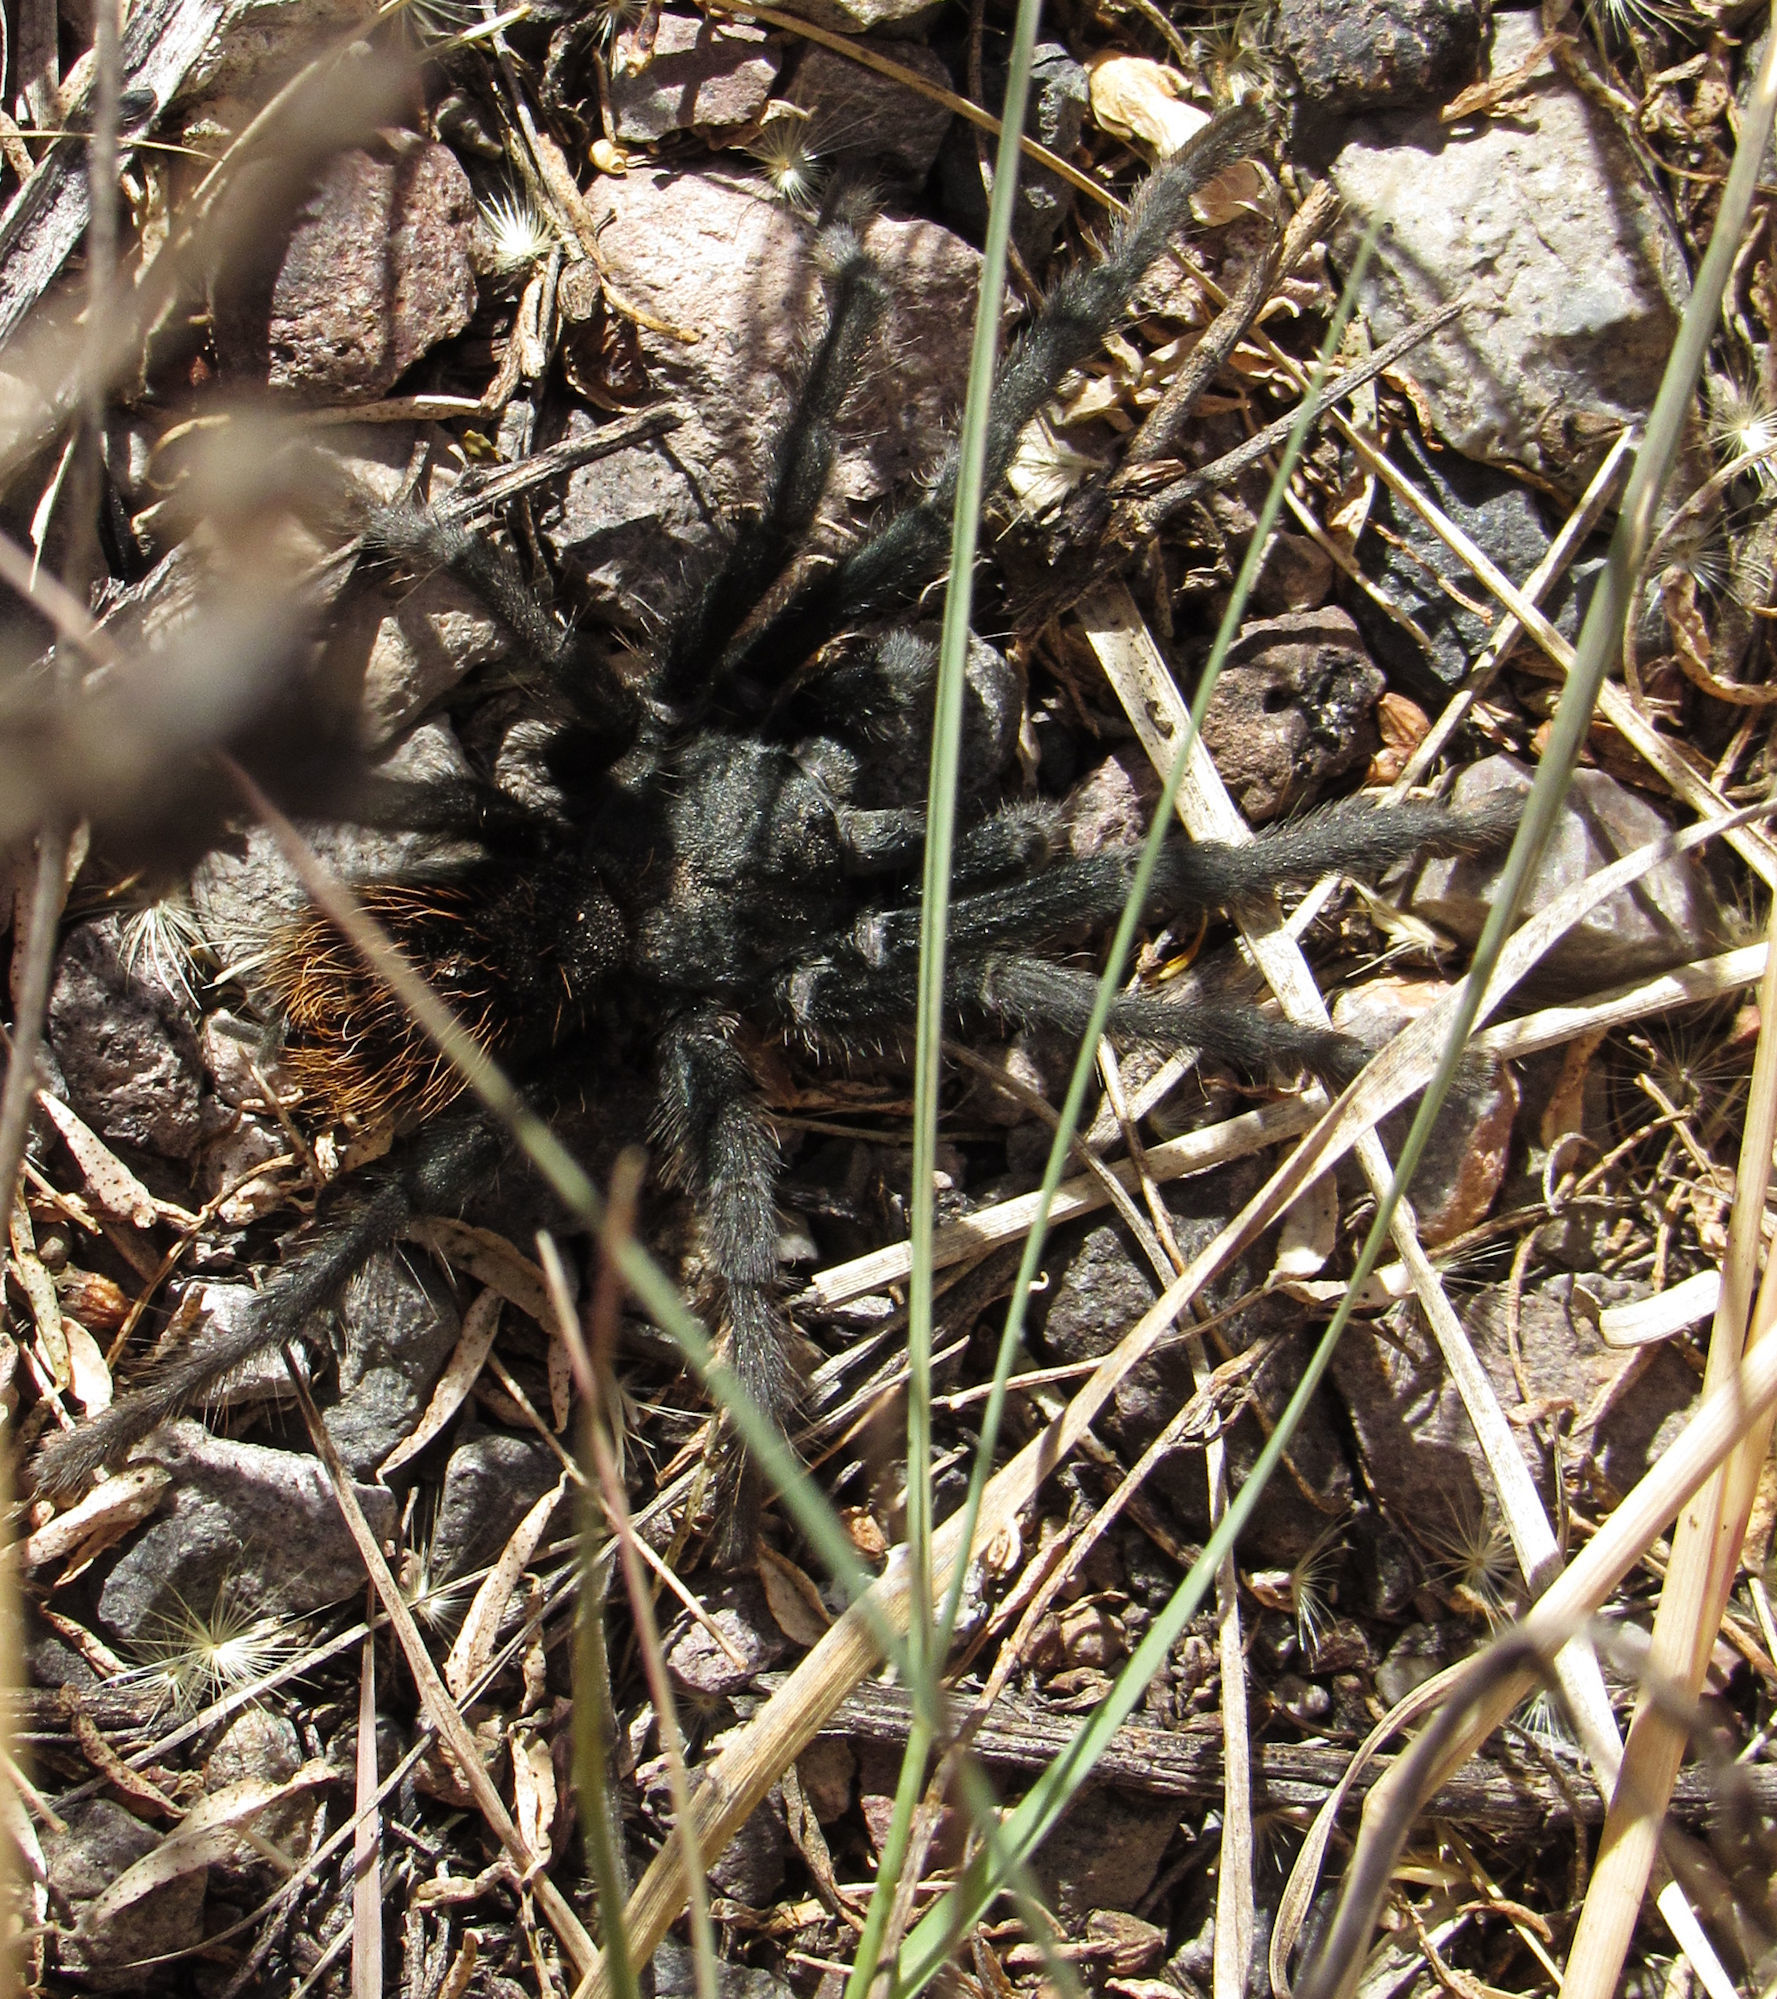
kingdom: Animalia
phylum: Arthropoda
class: Arachnida
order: Araneae
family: Theraphosidae
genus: Aphonopelma
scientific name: Aphonopelma marxi
